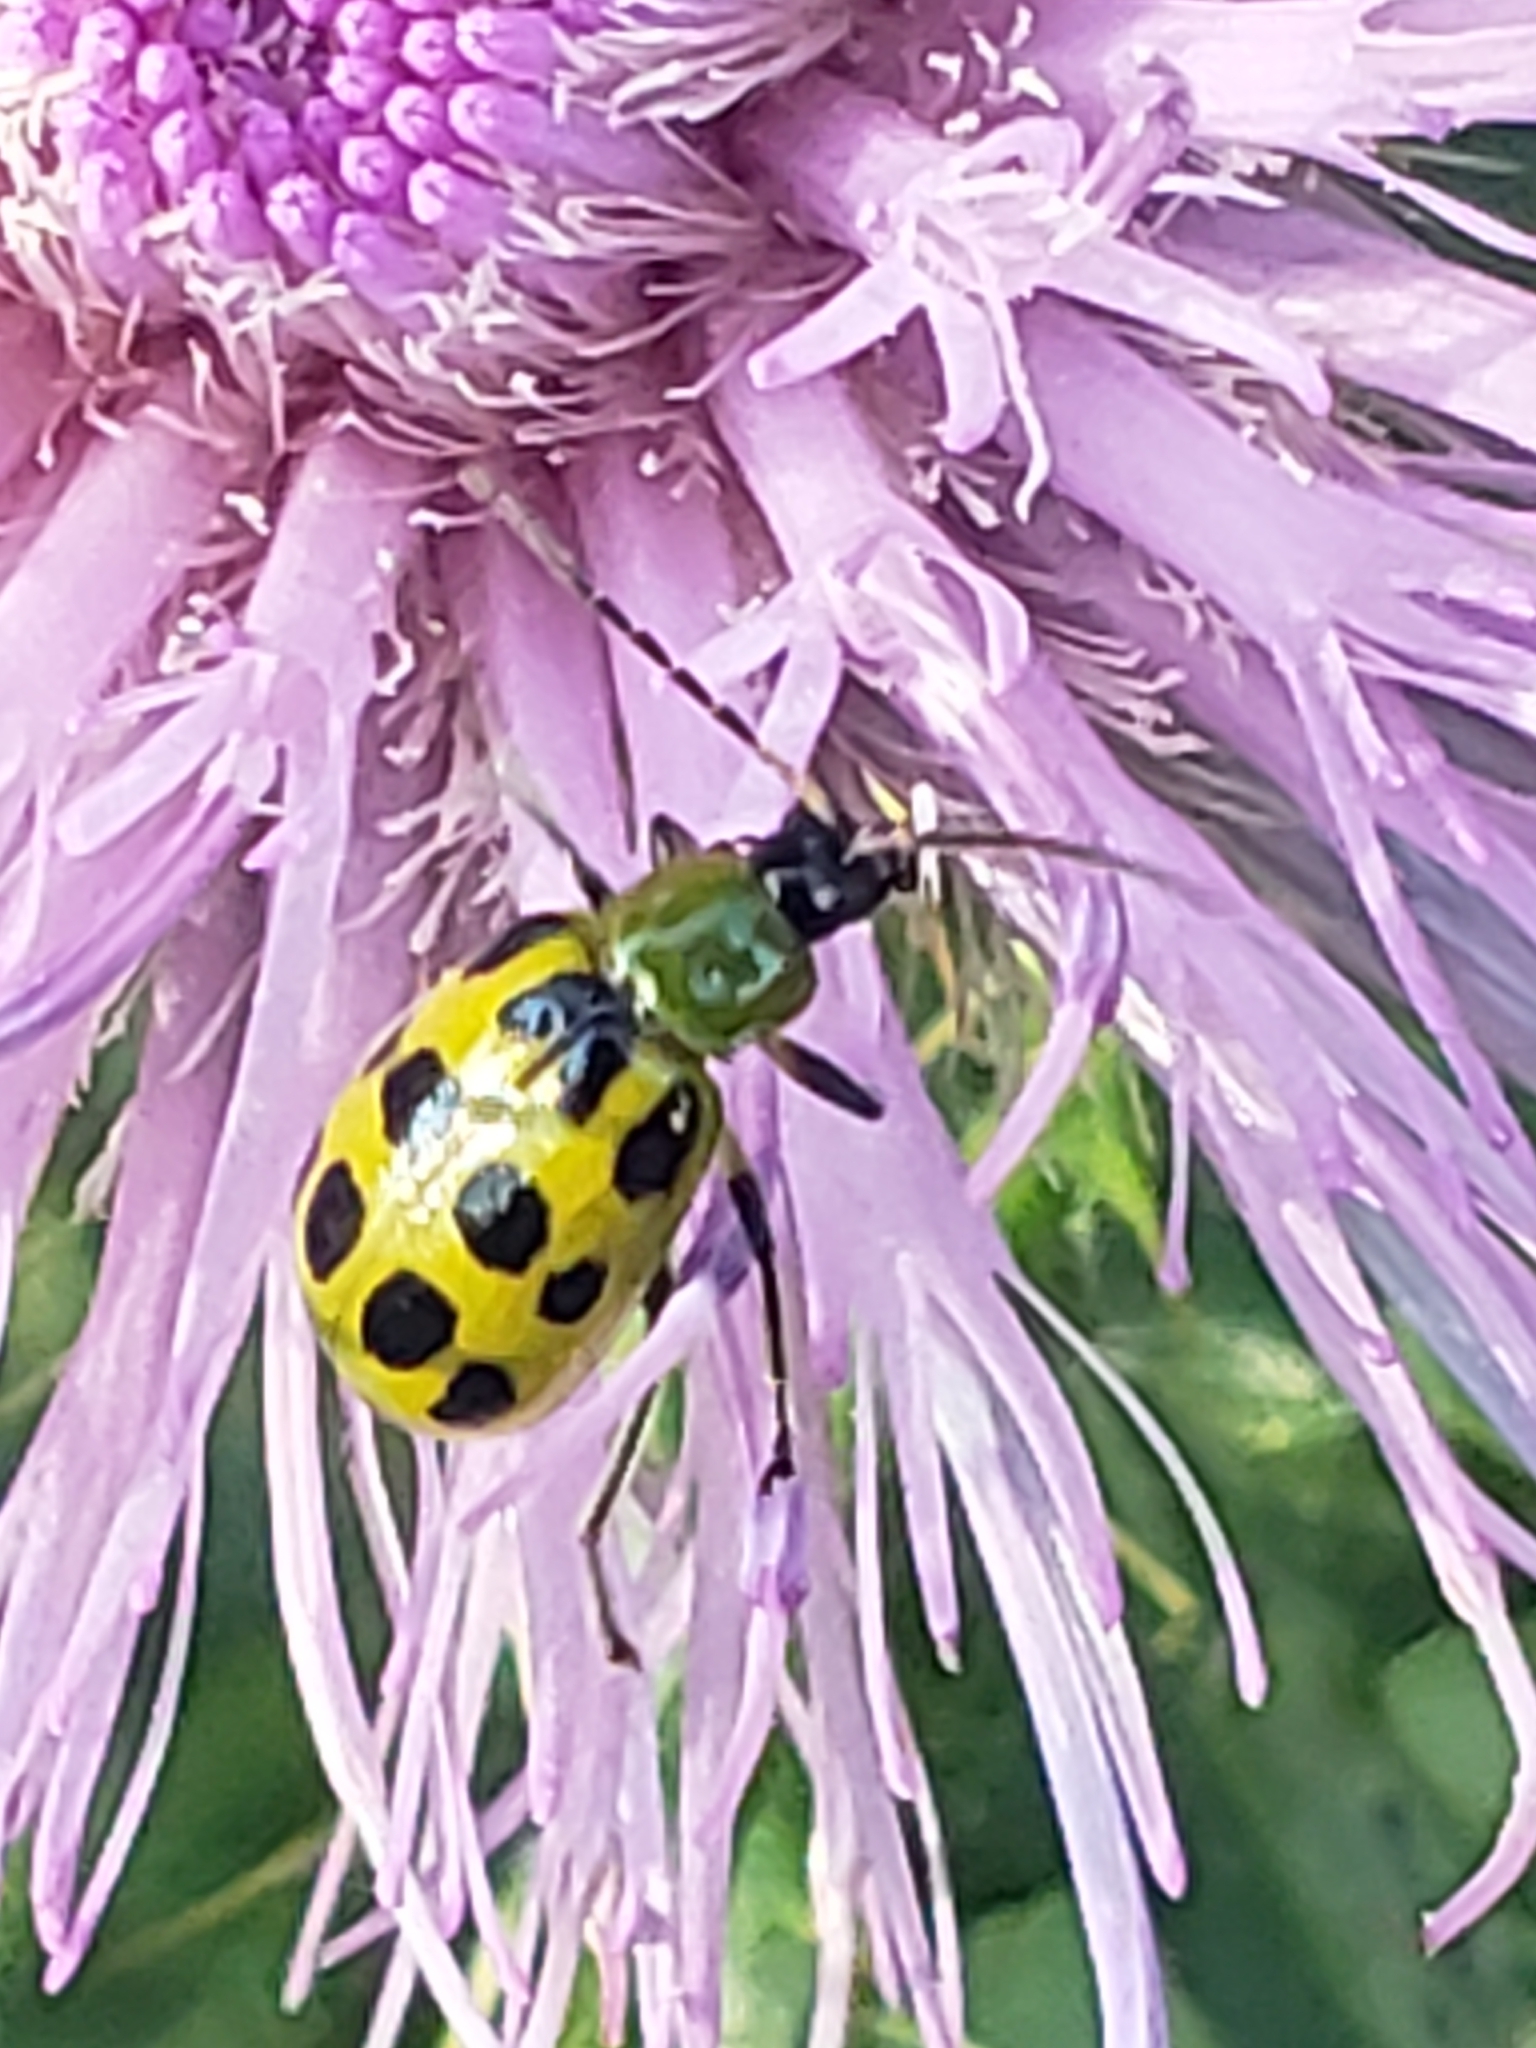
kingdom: Animalia
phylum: Arthropoda
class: Insecta
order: Coleoptera
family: Chrysomelidae
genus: Diabrotica
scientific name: Diabrotica undecimpunctata
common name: Spotted cucumber beetle
